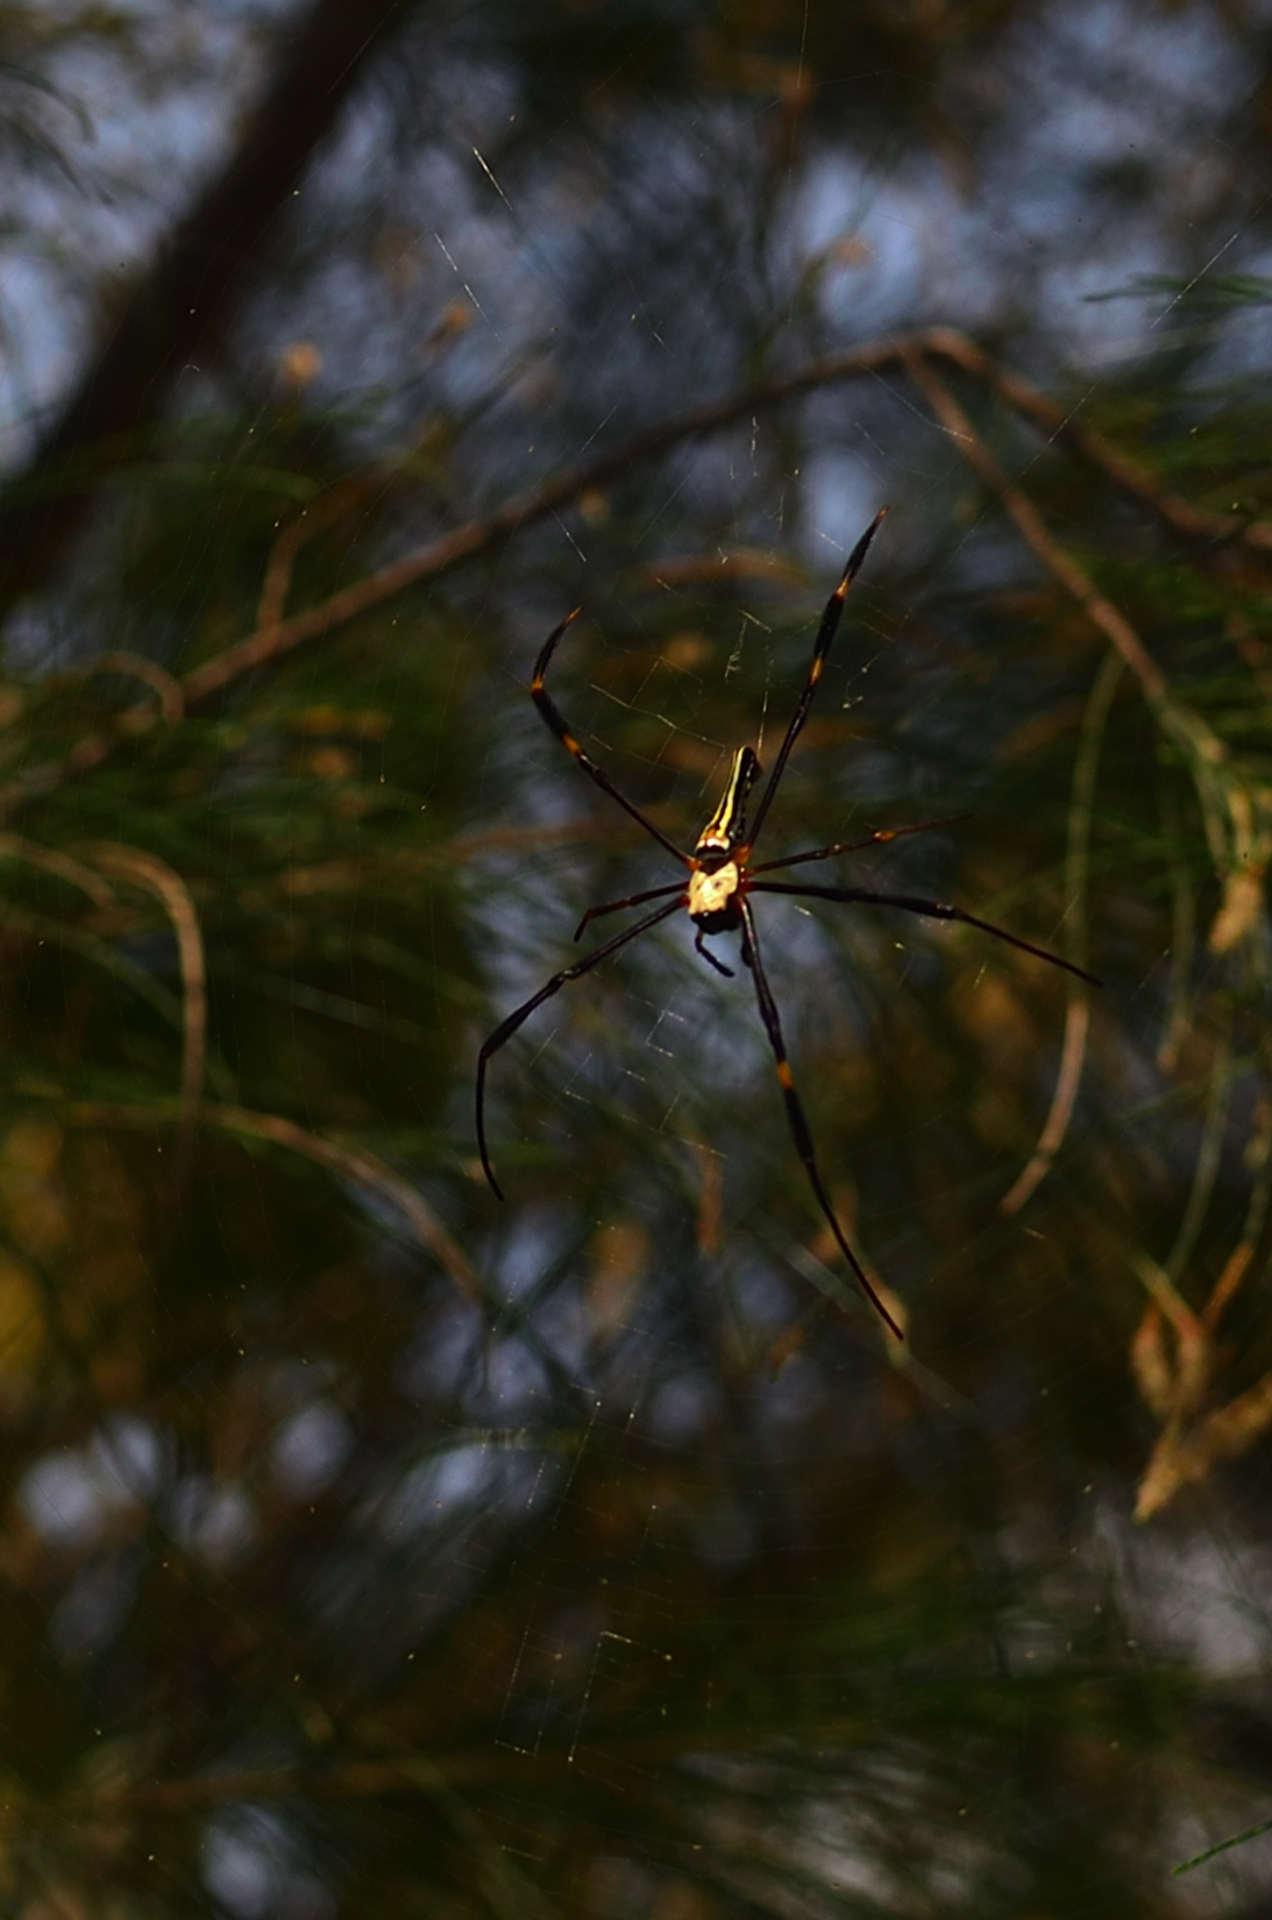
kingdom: Animalia
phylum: Arthropoda
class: Arachnida
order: Araneae
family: Araneidae
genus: Nephila
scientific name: Nephila pilipes
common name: Giant golden orb weaver
